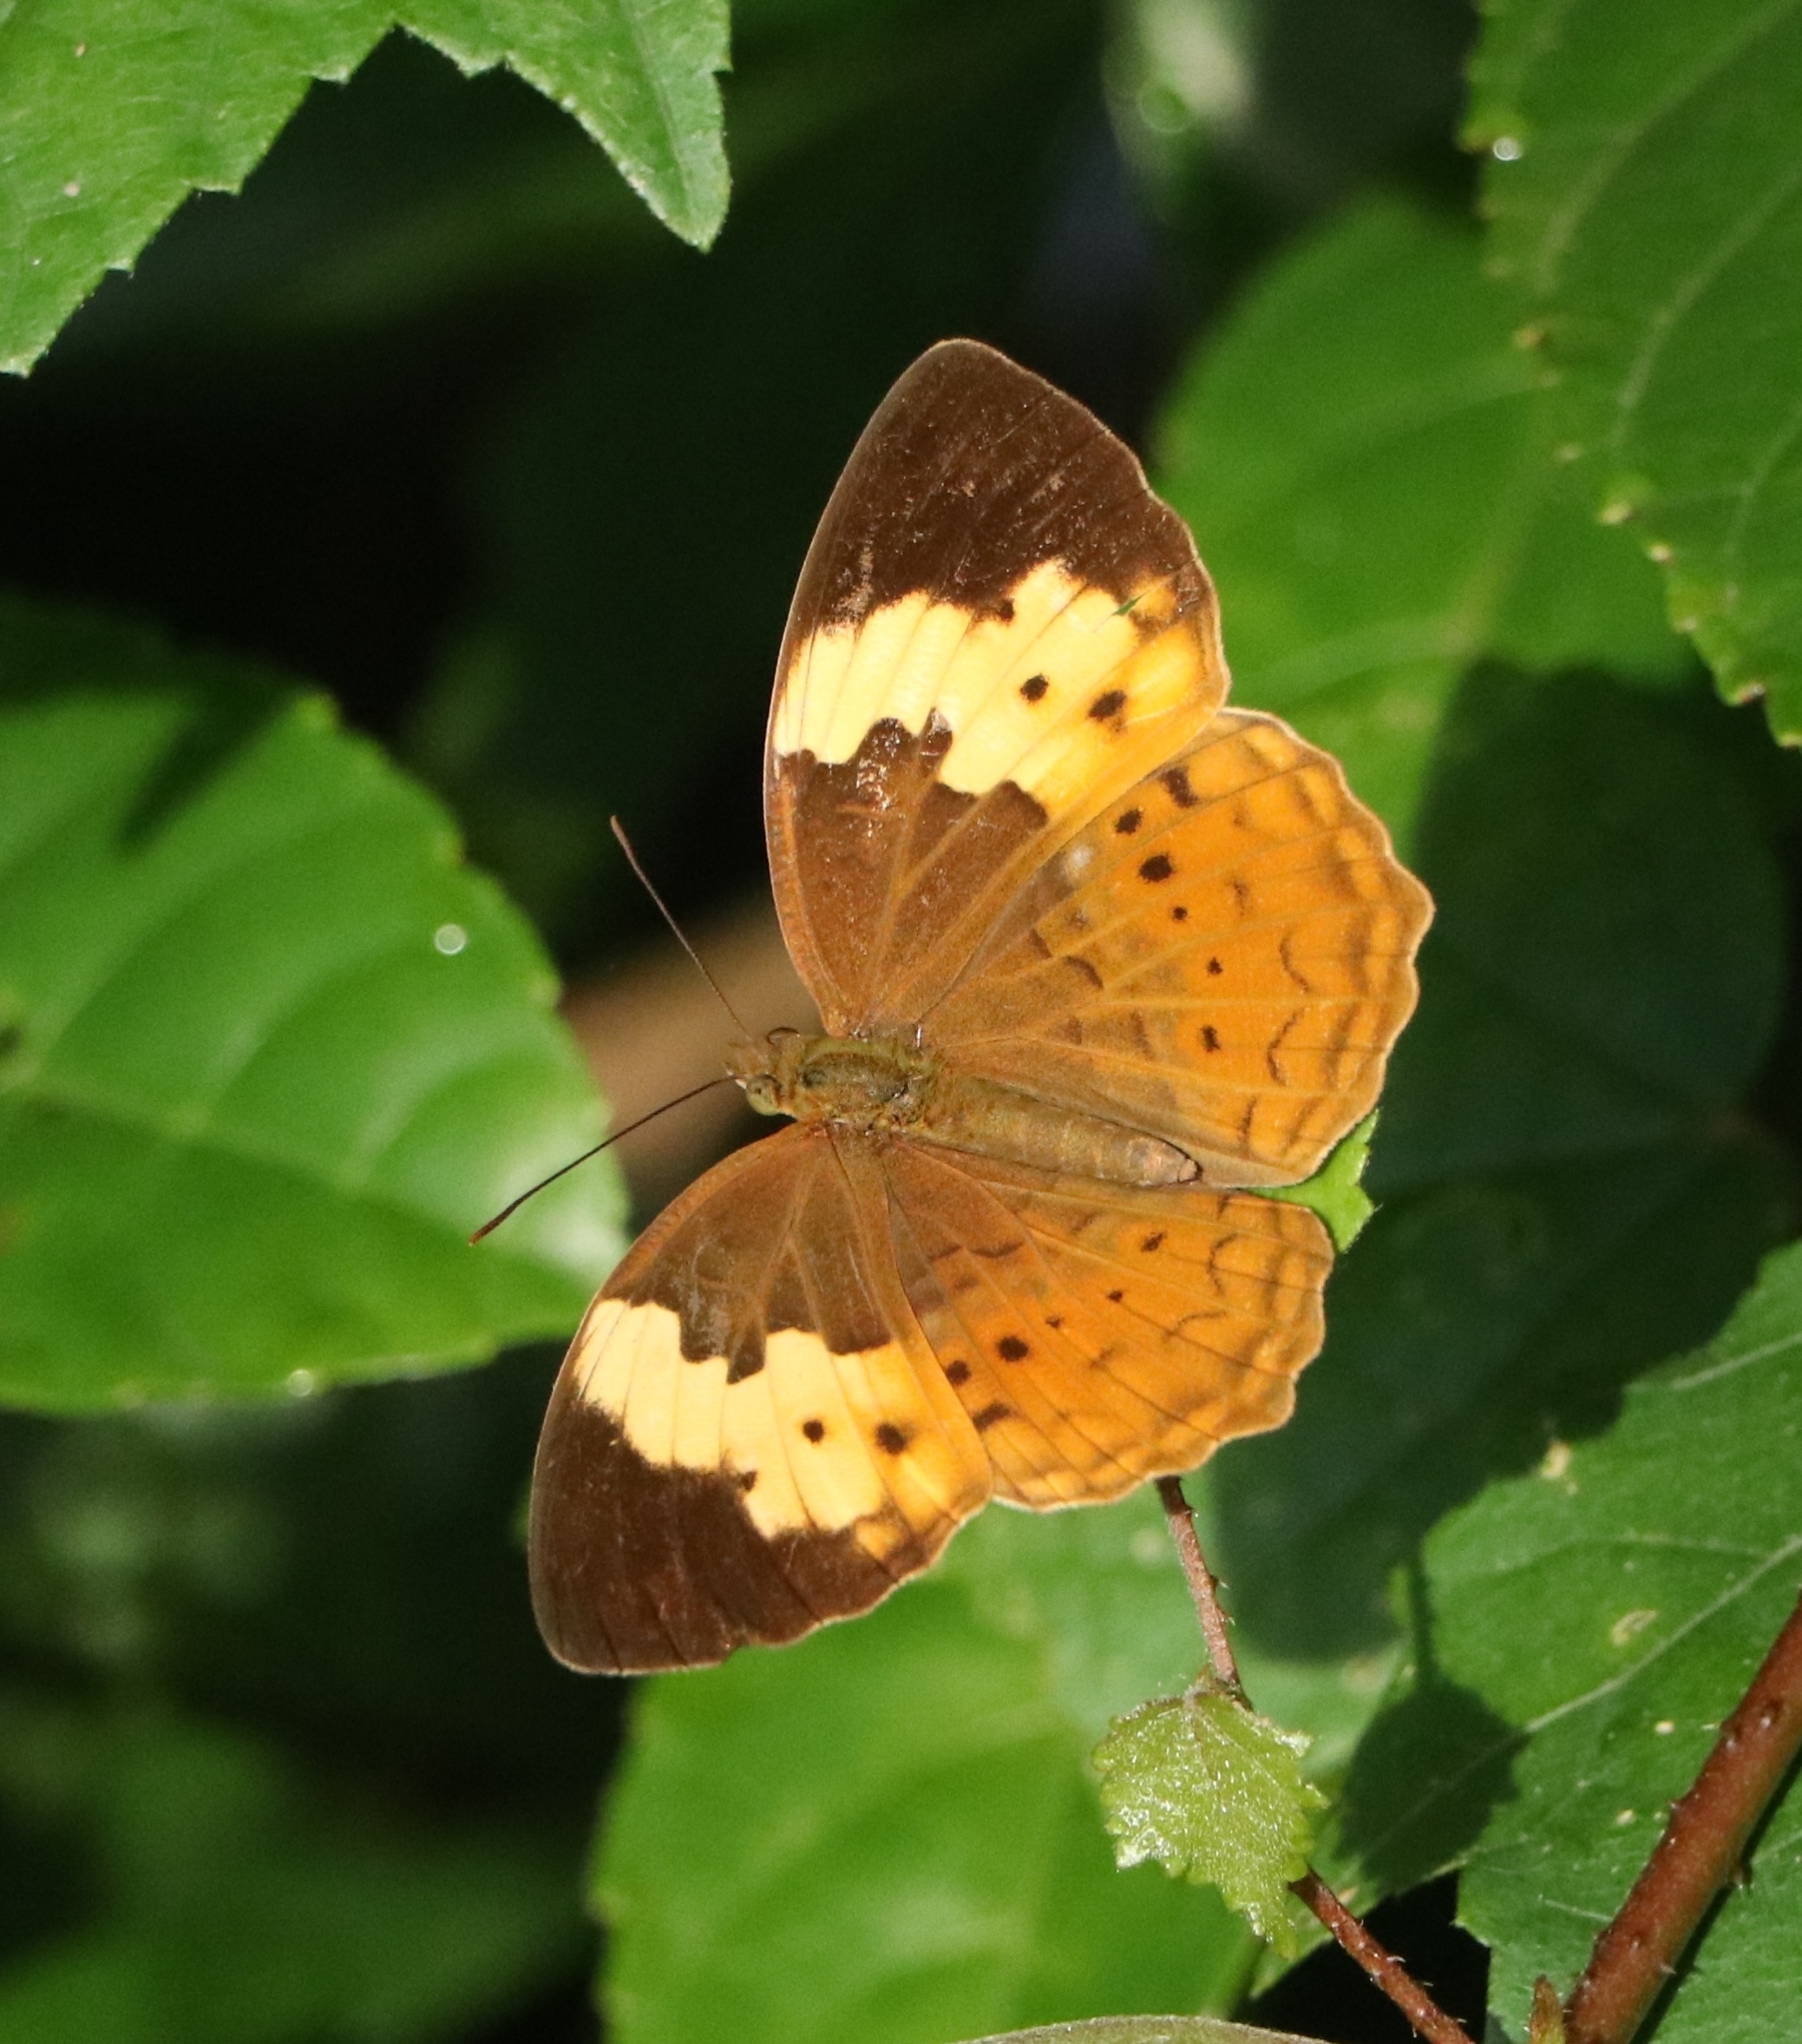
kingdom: Animalia
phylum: Arthropoda
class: Insecta
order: Lepidoptera
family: Nymphalidae
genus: Cupha
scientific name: Cupha erymanthis
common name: Rustic
